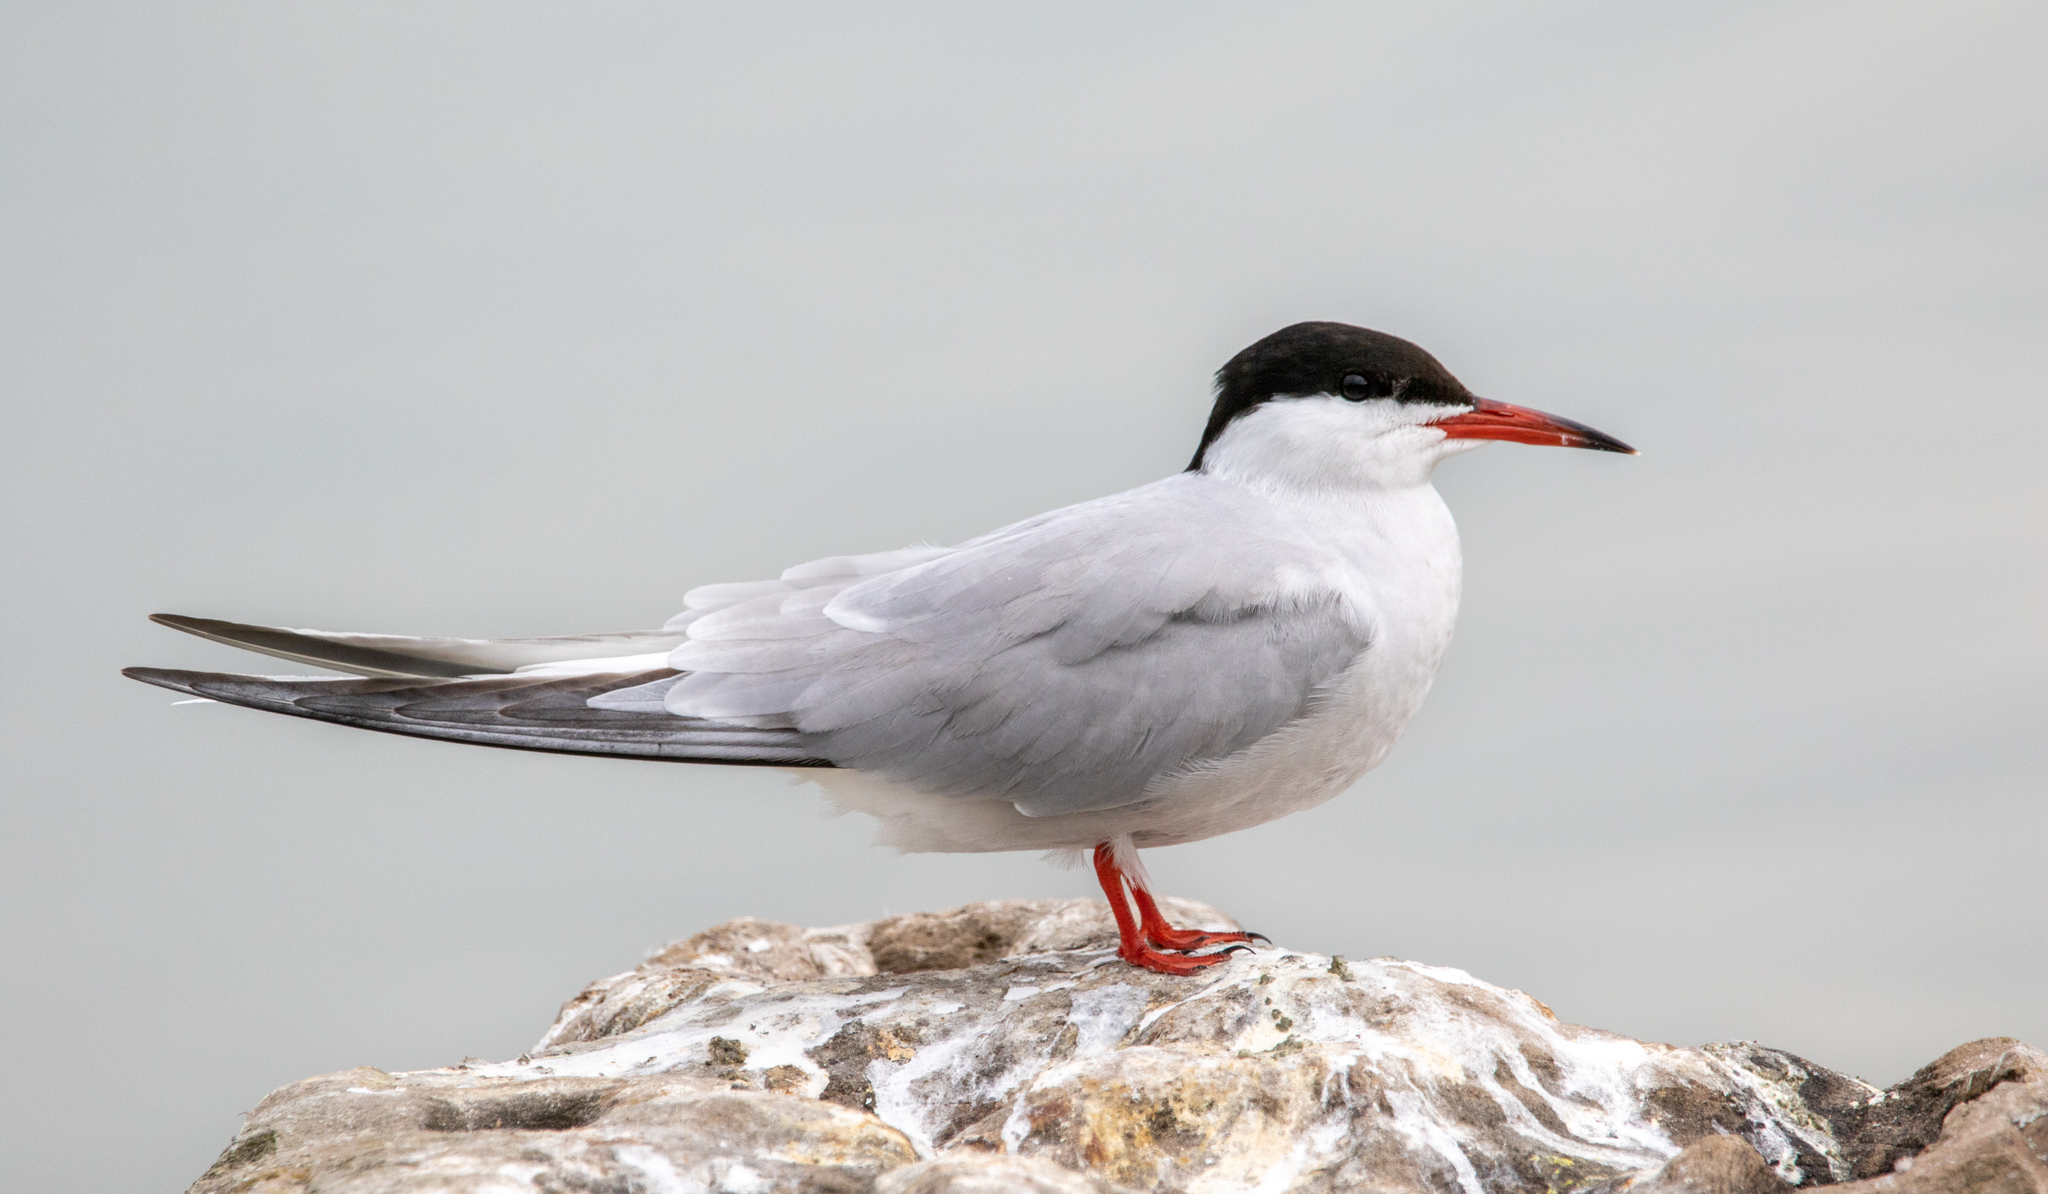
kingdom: Animalia
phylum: Chordata
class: Aves
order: Charadriiformes
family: Laridae
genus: Sterna
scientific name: Sterna hirundo
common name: Common tern
